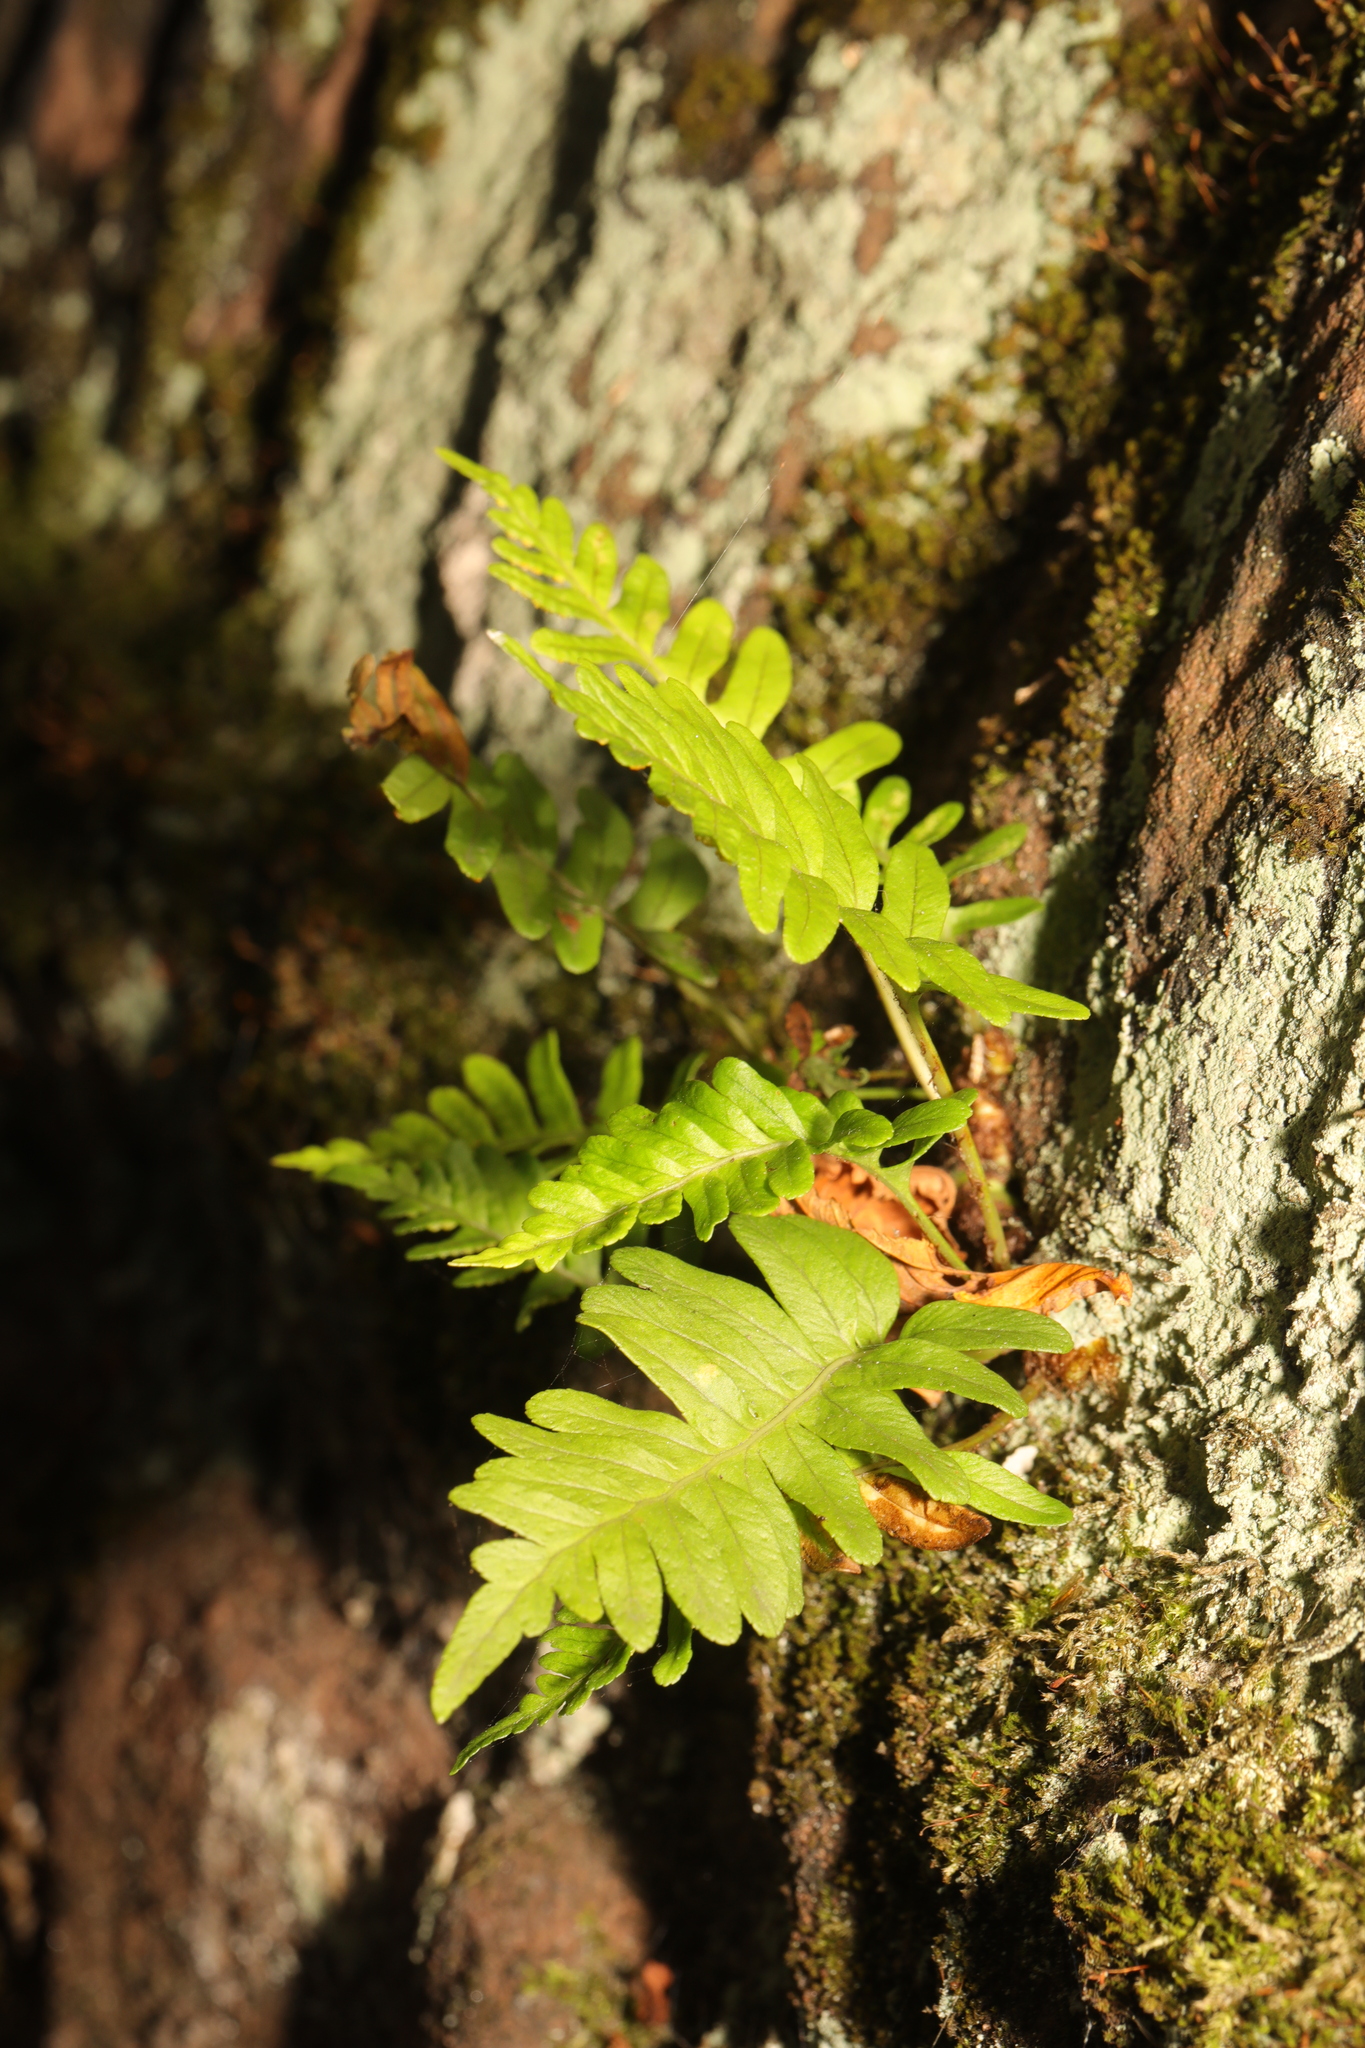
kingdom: Plantae
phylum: Tracheophyta
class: Polypodiopsida
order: Polypodiales
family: Polypodiaceae
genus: Polypodium
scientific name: Polypodium vulgare
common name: Common polypody
